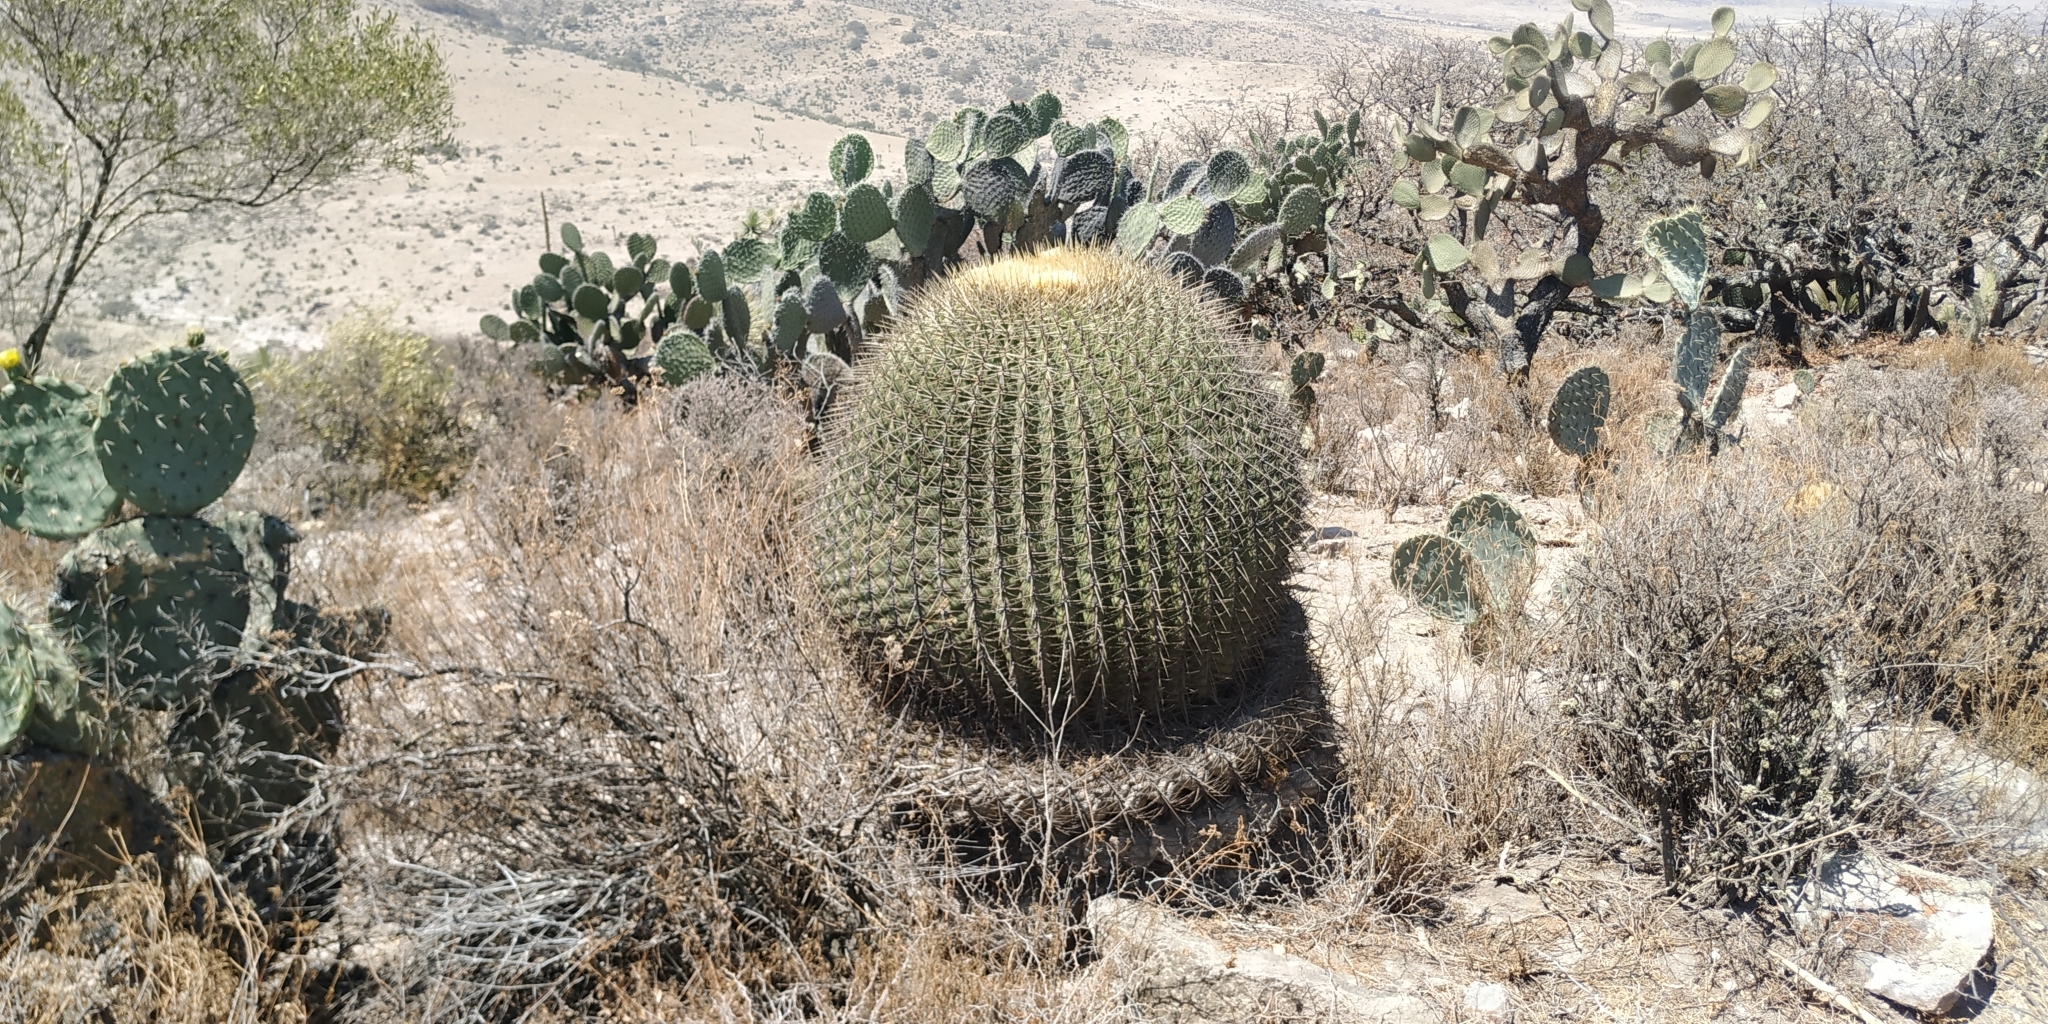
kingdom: Plantae
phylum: Tracheophyta
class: Magnoliopsida
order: Caryophyllales
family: Cactaceae
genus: Bisnaga
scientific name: Bisnaga histrix
